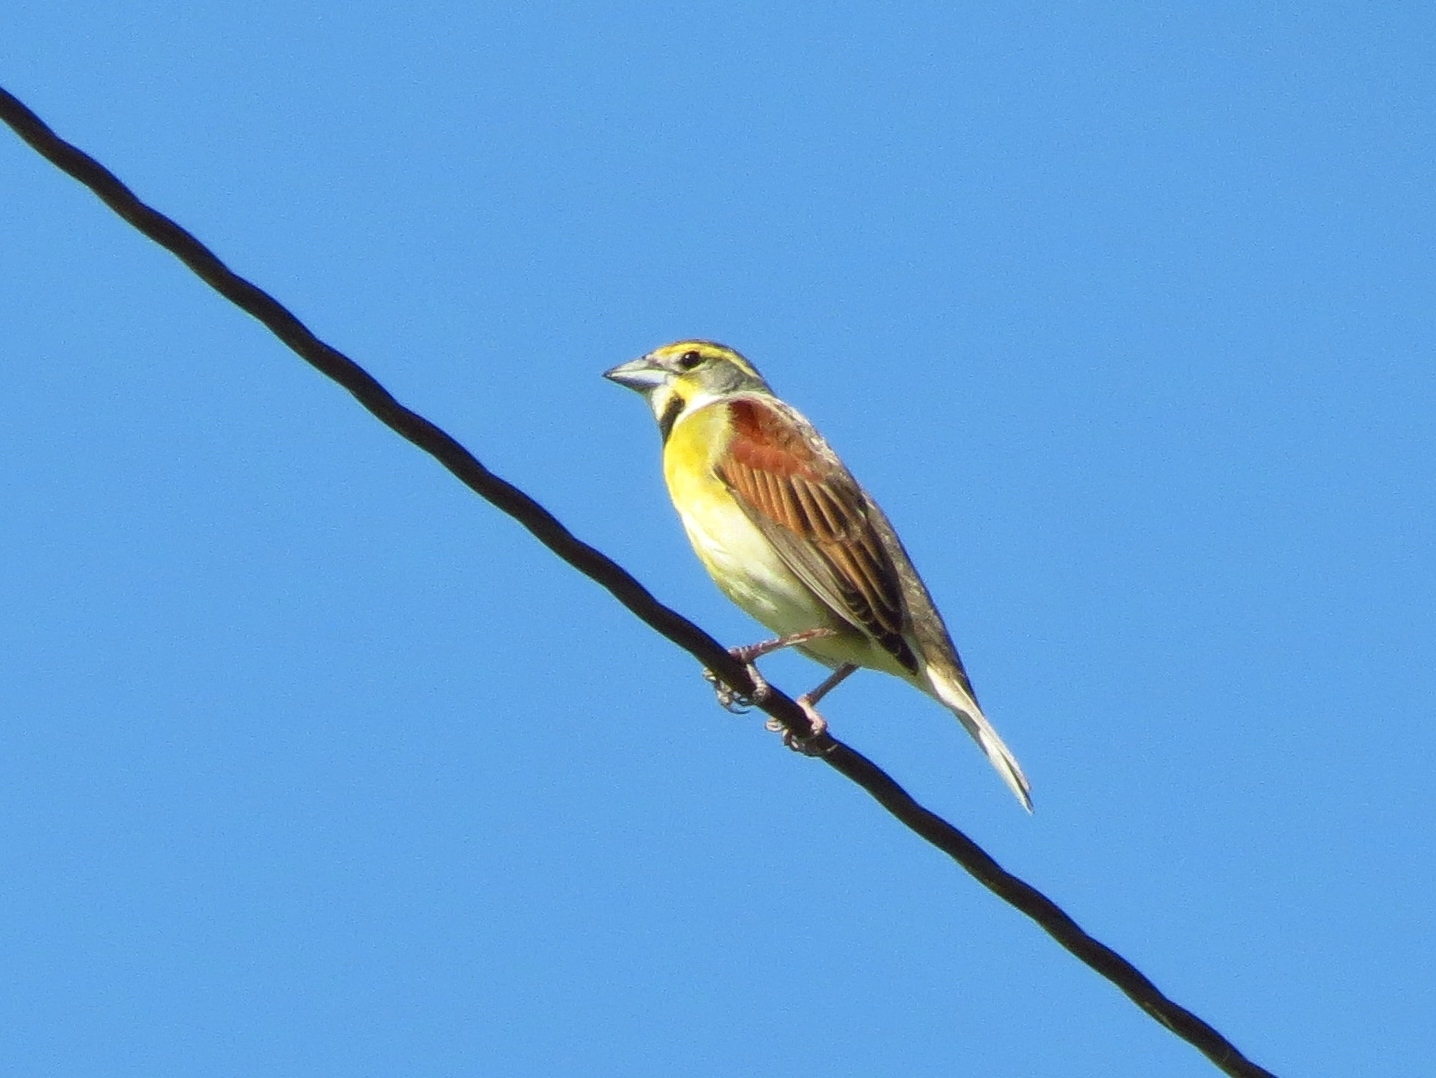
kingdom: Animalia
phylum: Chordata
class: Aves
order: Passeriformes
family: Cardinalidae
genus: Spiza
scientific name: Spiza americana
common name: Dickcissel
